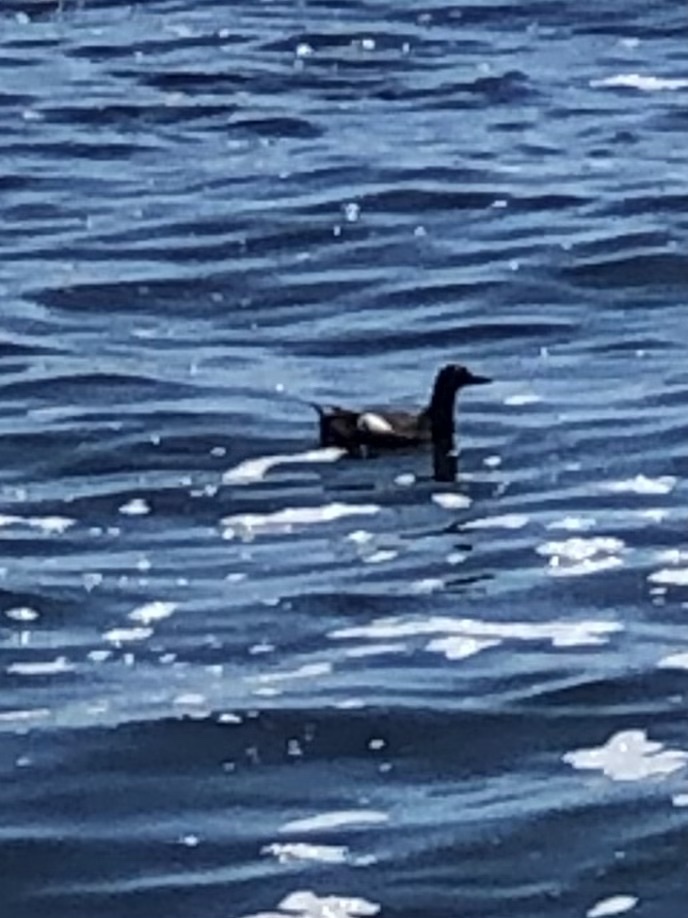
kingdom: Animalia
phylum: Chordata
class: Aves
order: Charadriiformes
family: Alcidae
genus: Cepphus
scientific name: Cepphus columba
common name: Pigeon guillemot
